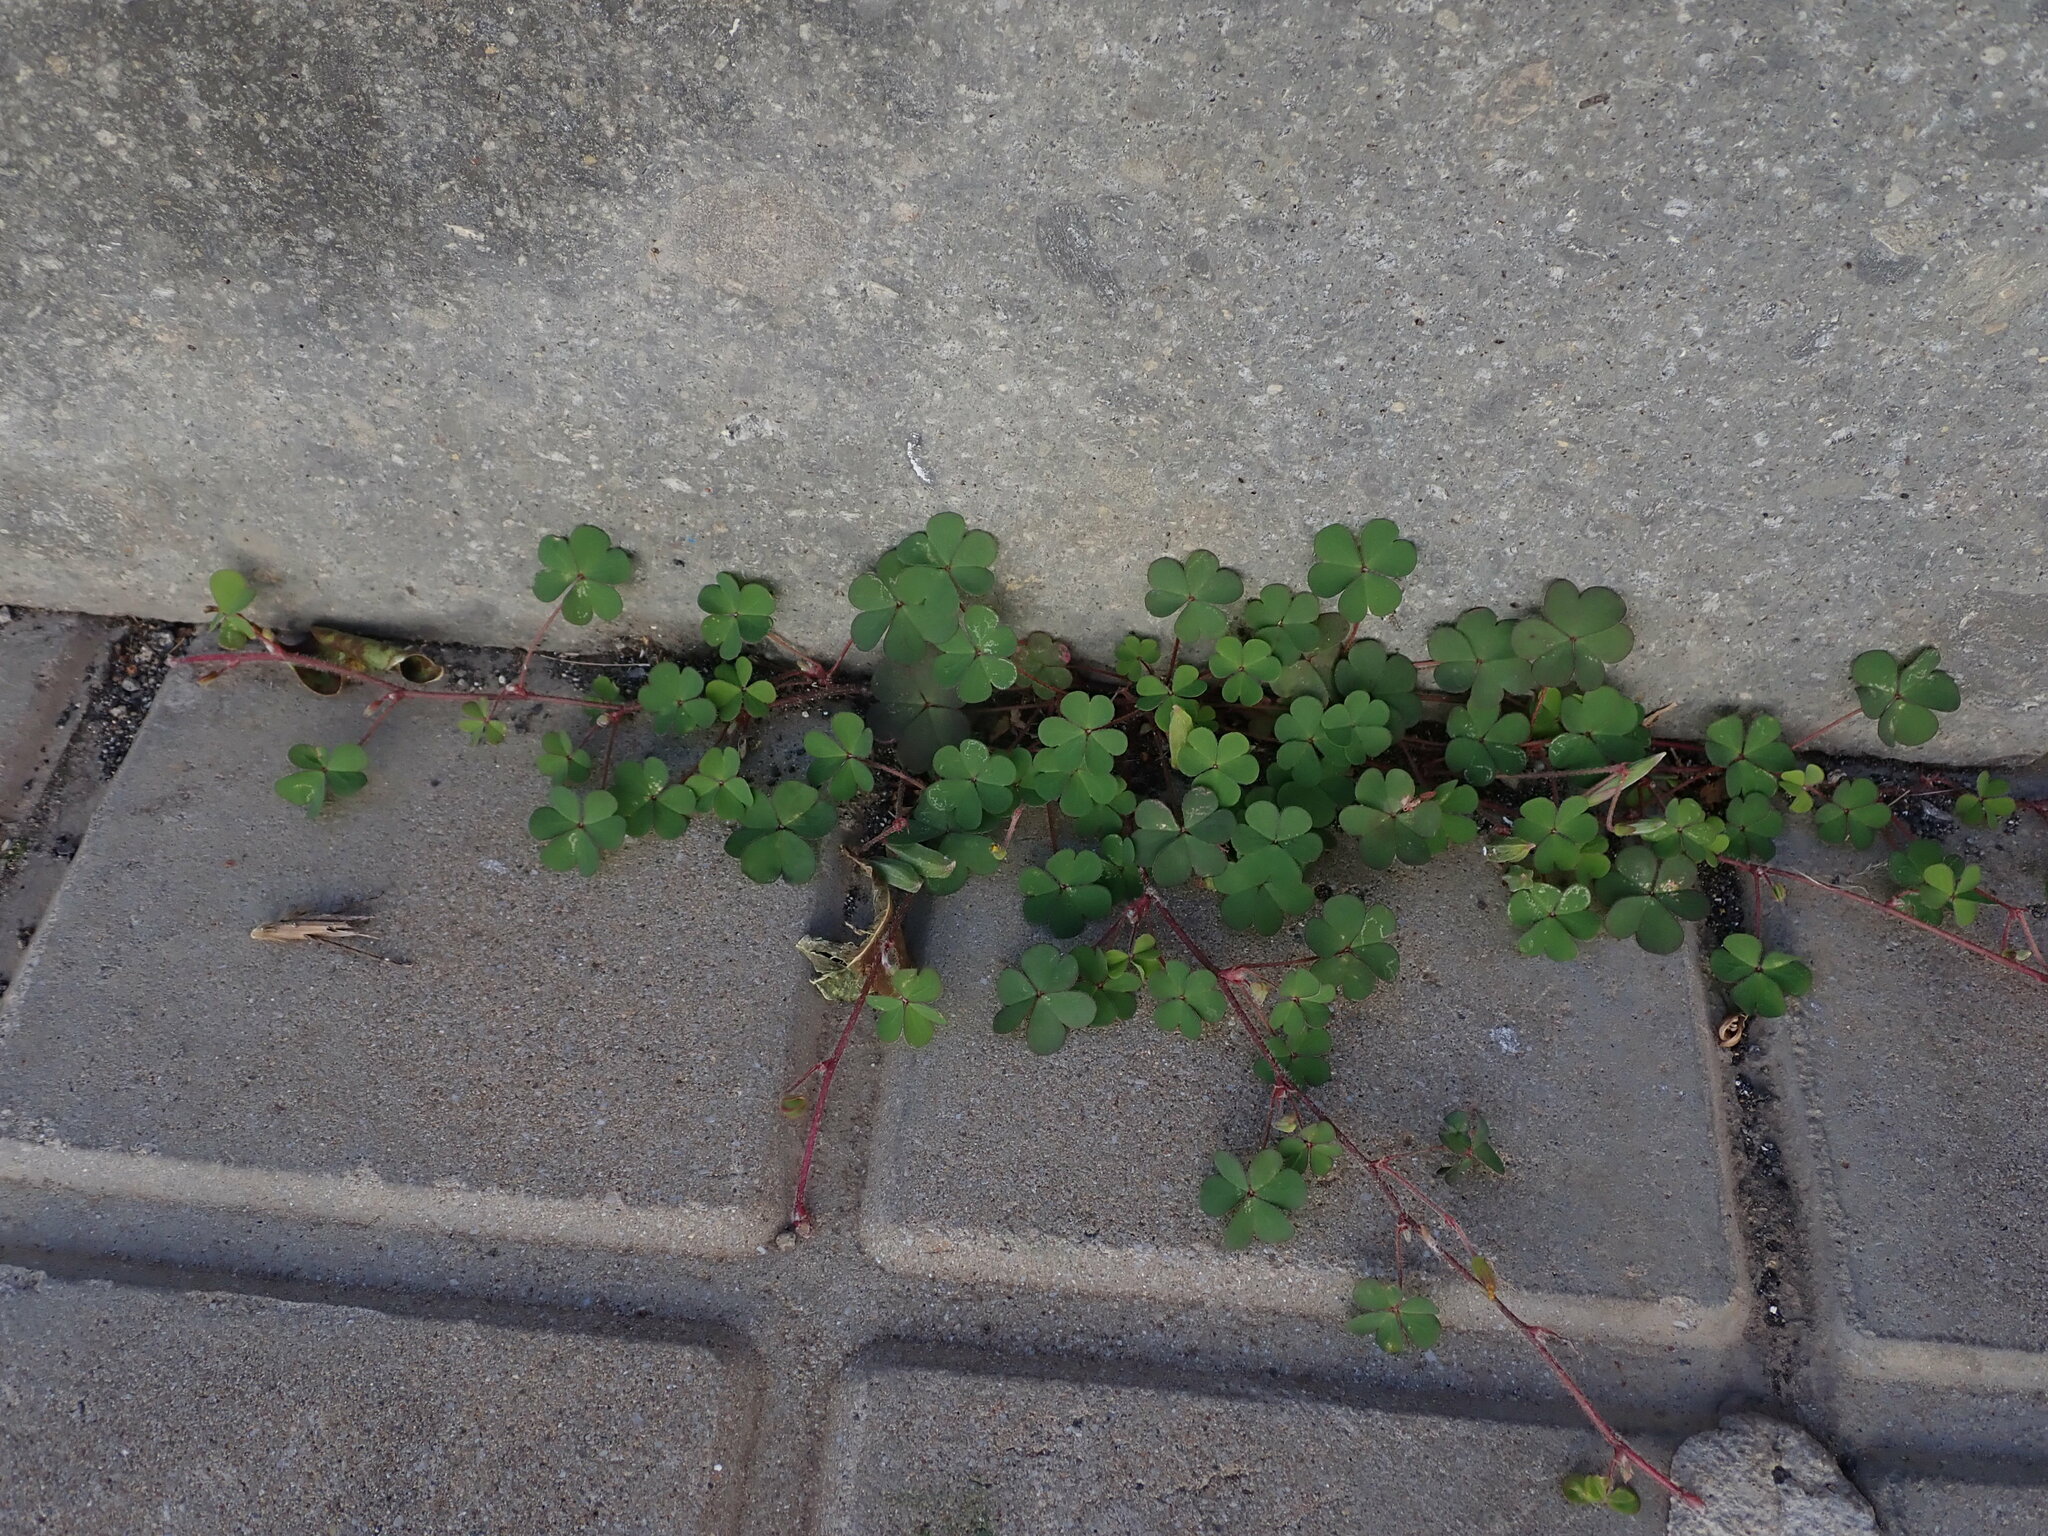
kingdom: Plantae
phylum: Tracheophyta
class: Magnoliopsida
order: Oxalidales
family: Oxalidaceae
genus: Oxalis
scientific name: Oxalis corniculata
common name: Procumbent yellow-sorrel
